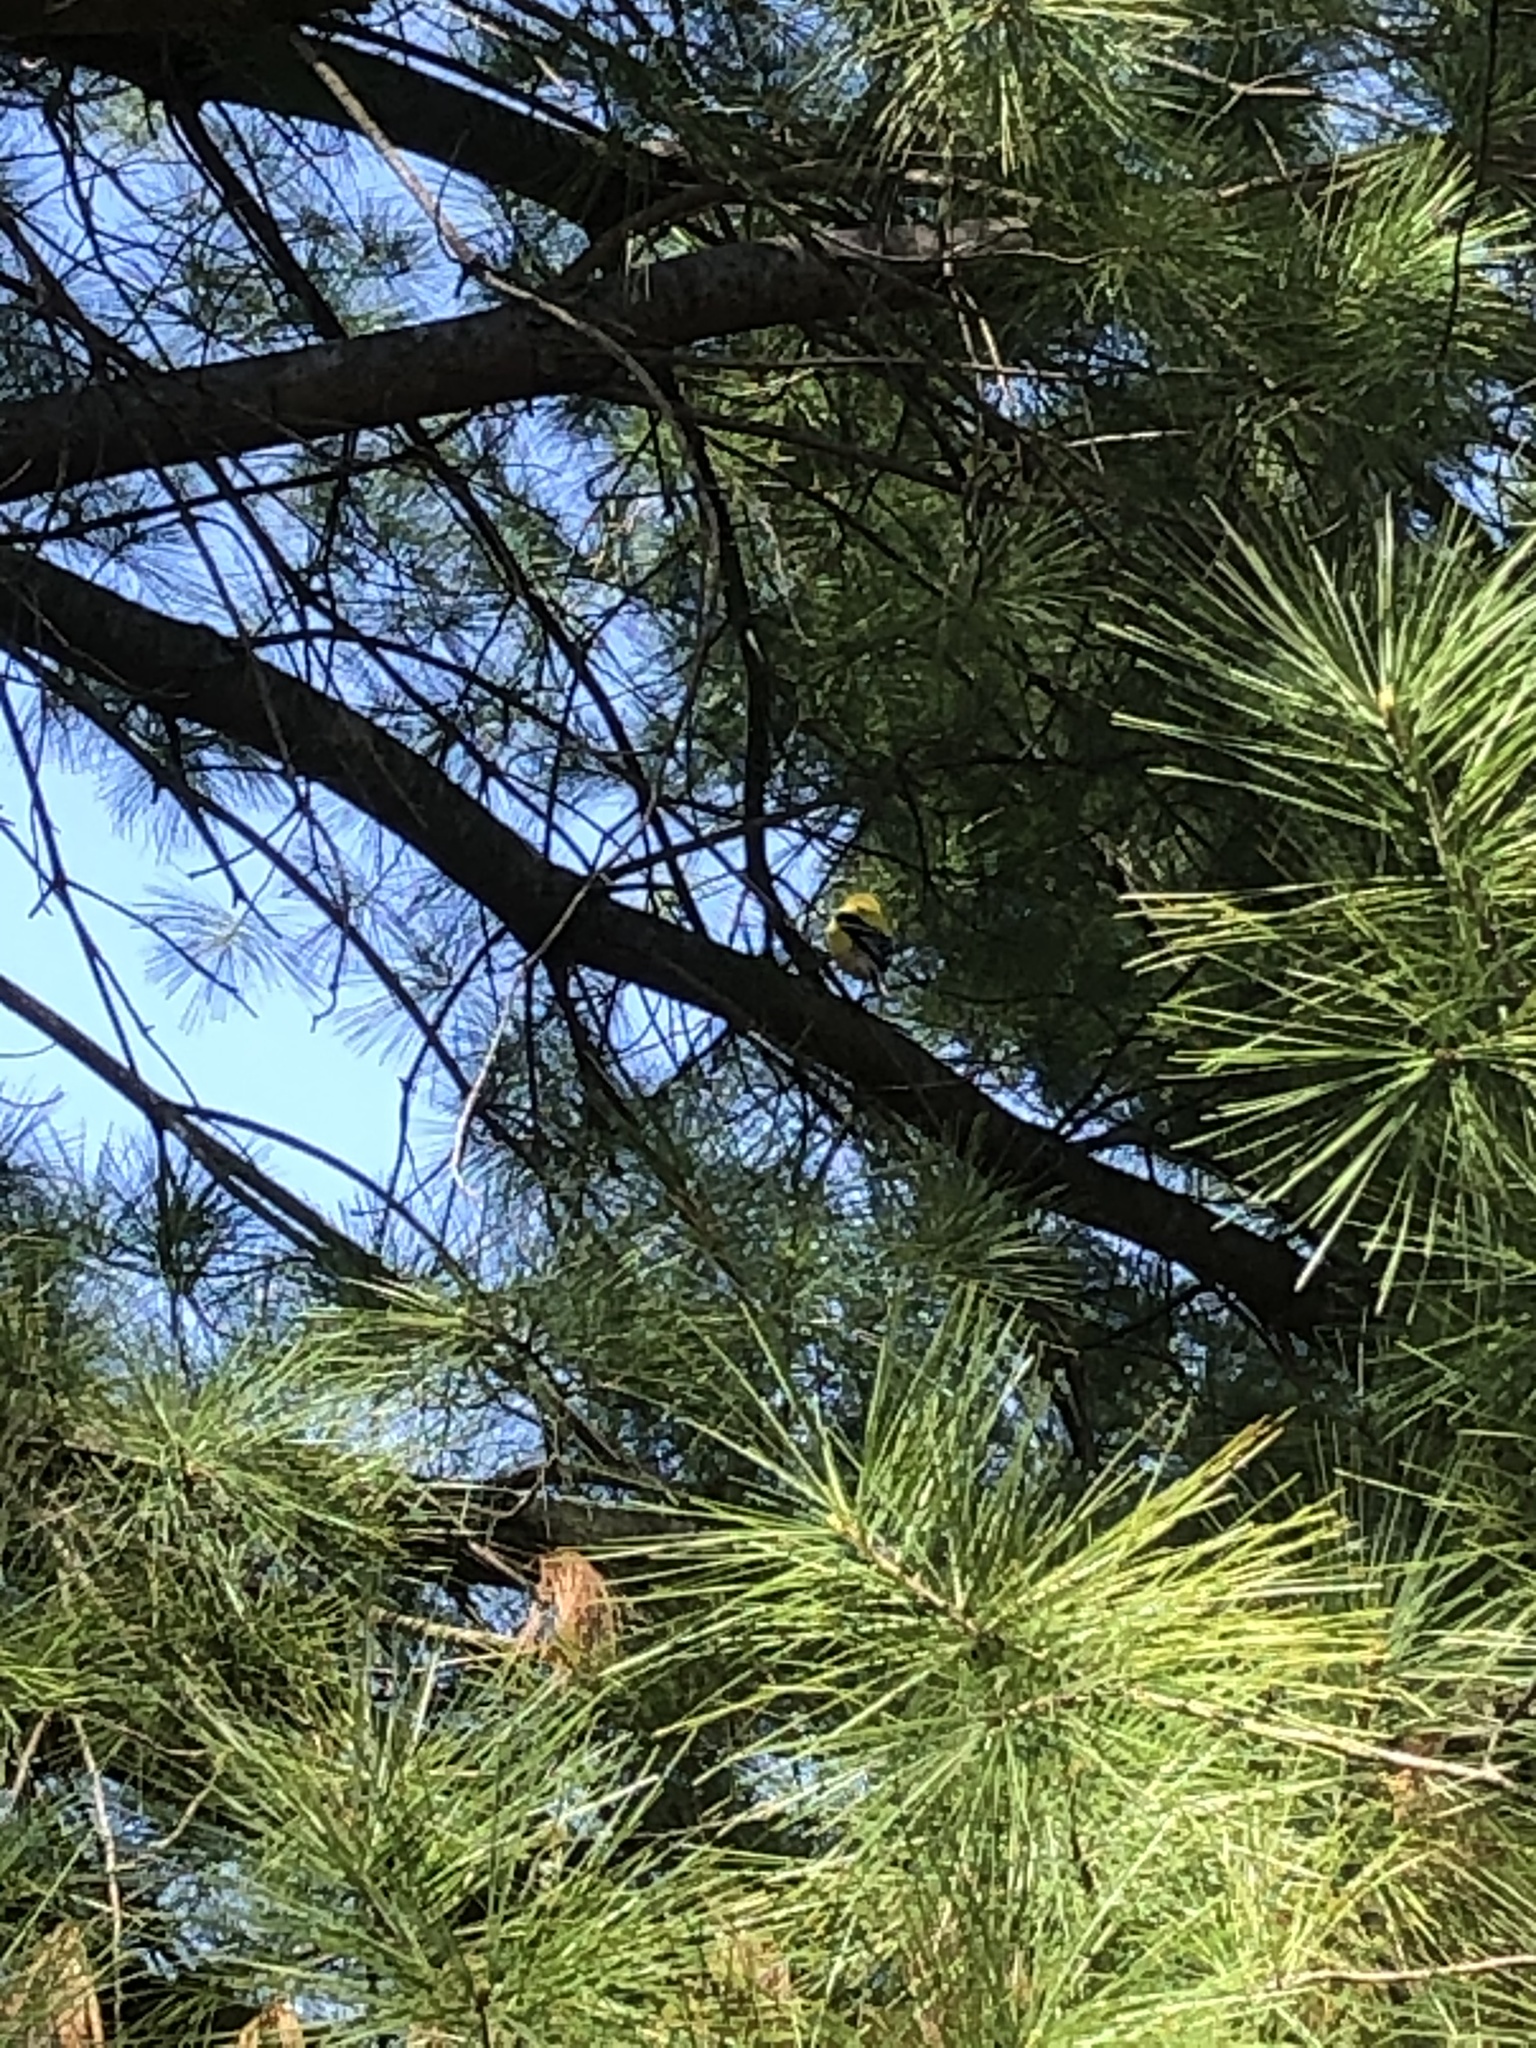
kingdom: Animalia
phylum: Chordata
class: Aves
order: Passeriformes
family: Fringillidae
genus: Spinus
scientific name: Spinus tristis
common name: American goldfinch
